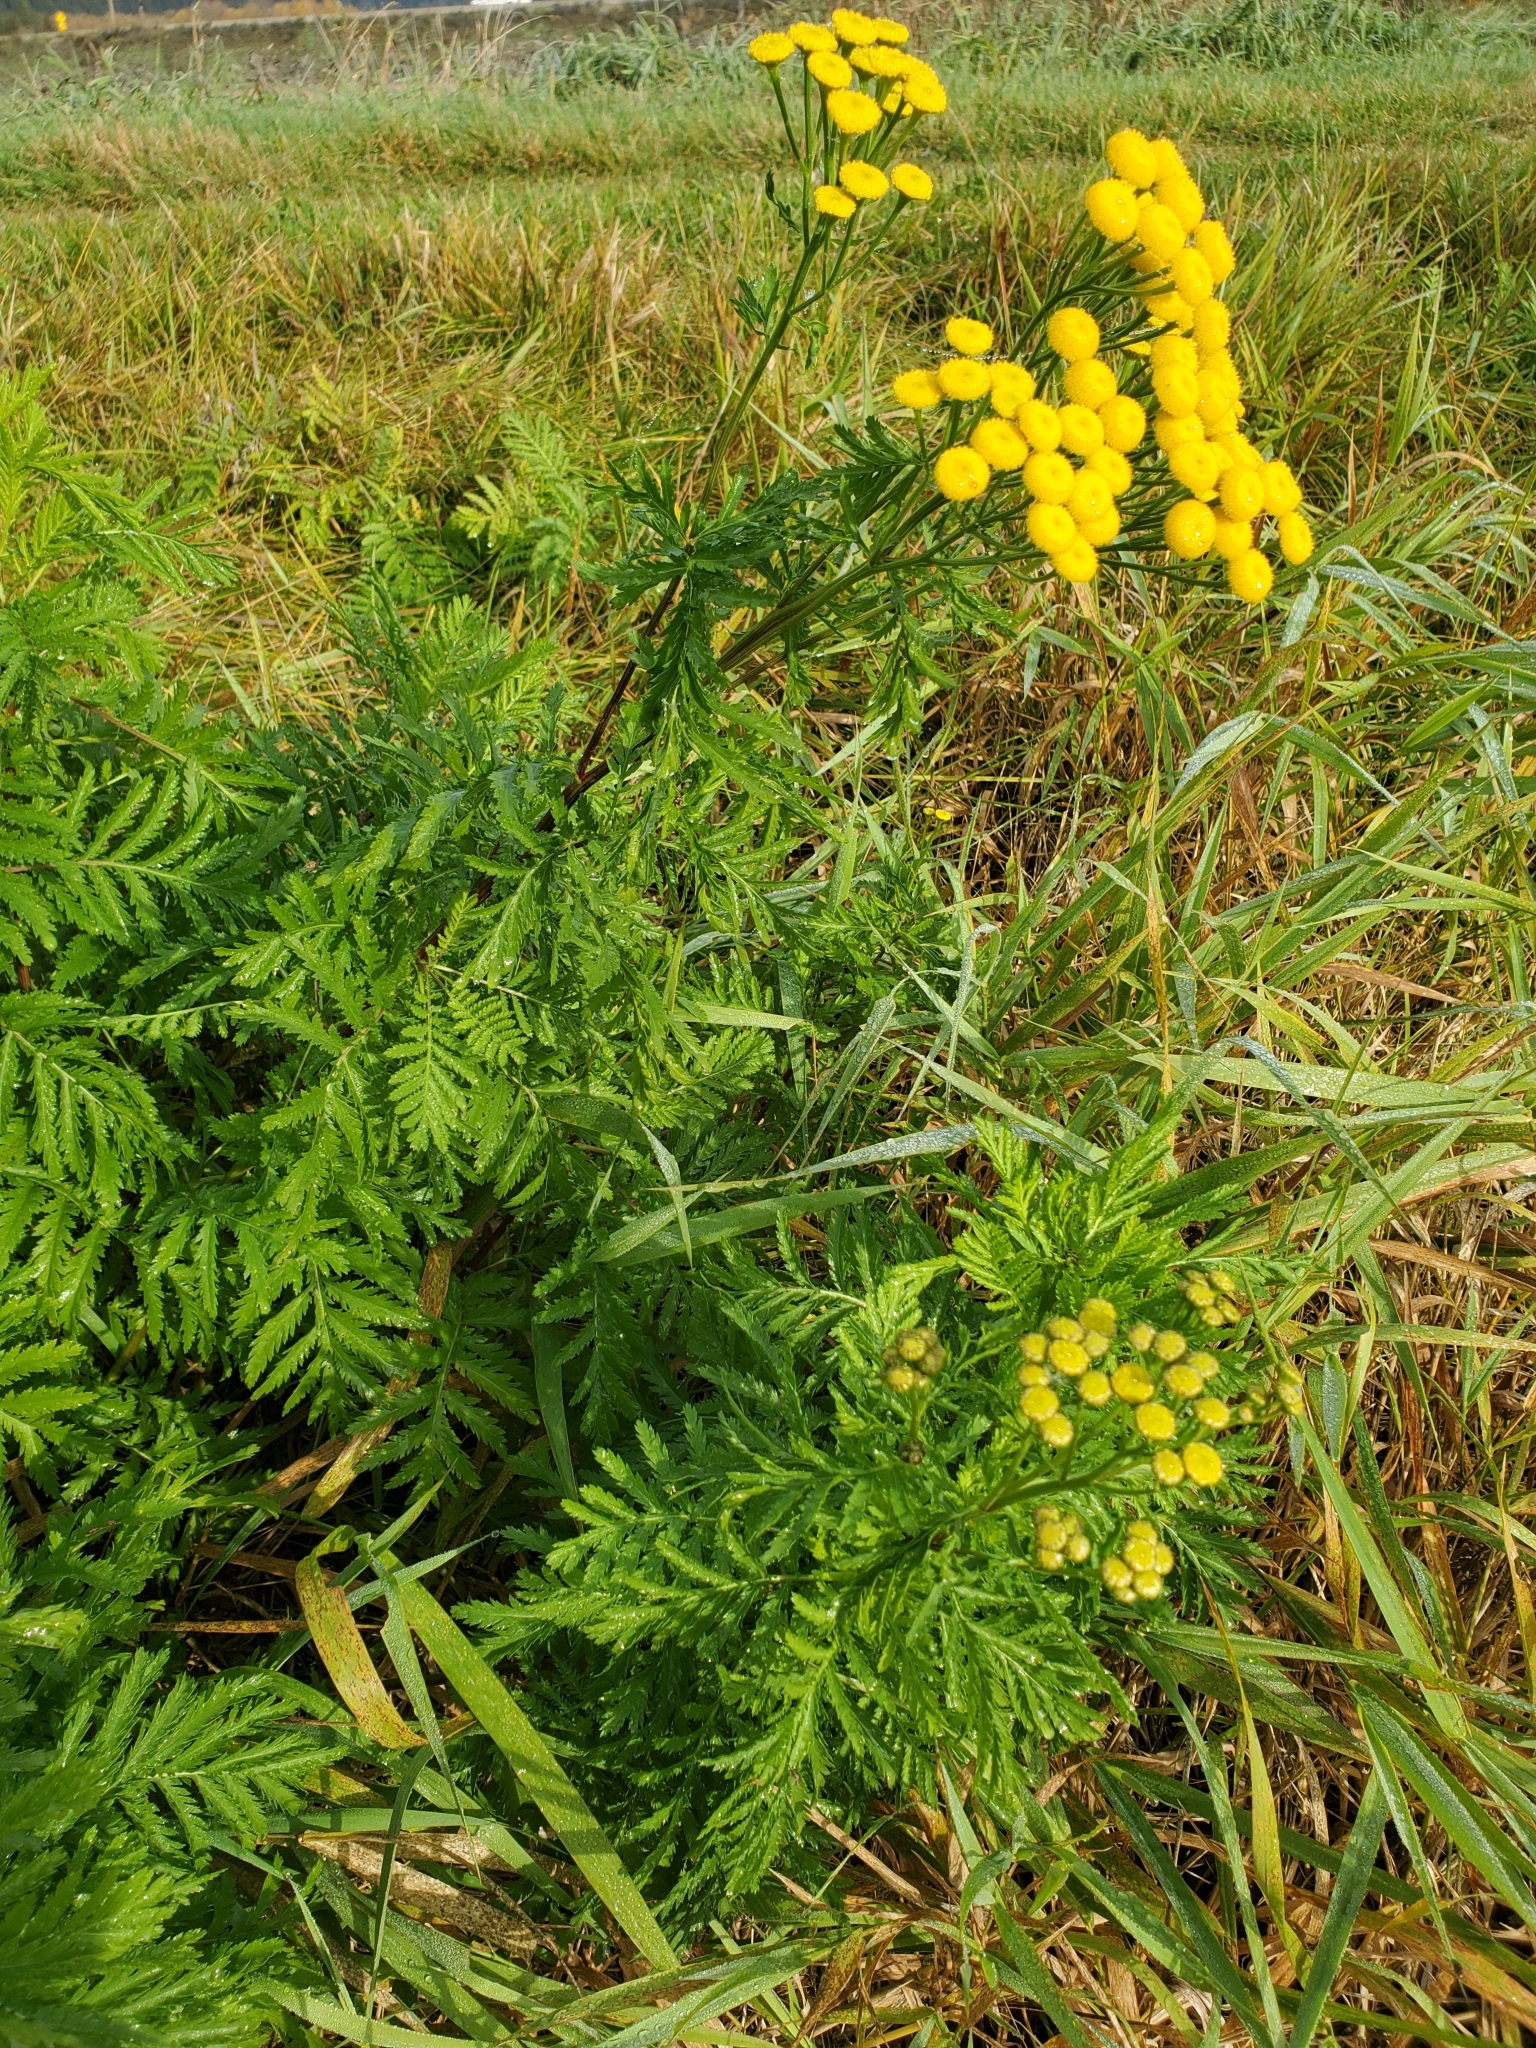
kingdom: Plantae
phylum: Tracheophyta
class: Magnoliopsida
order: Asterales
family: Asteraceae
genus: Tanacetum
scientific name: Tanacetum vulgare
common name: Common tansy
